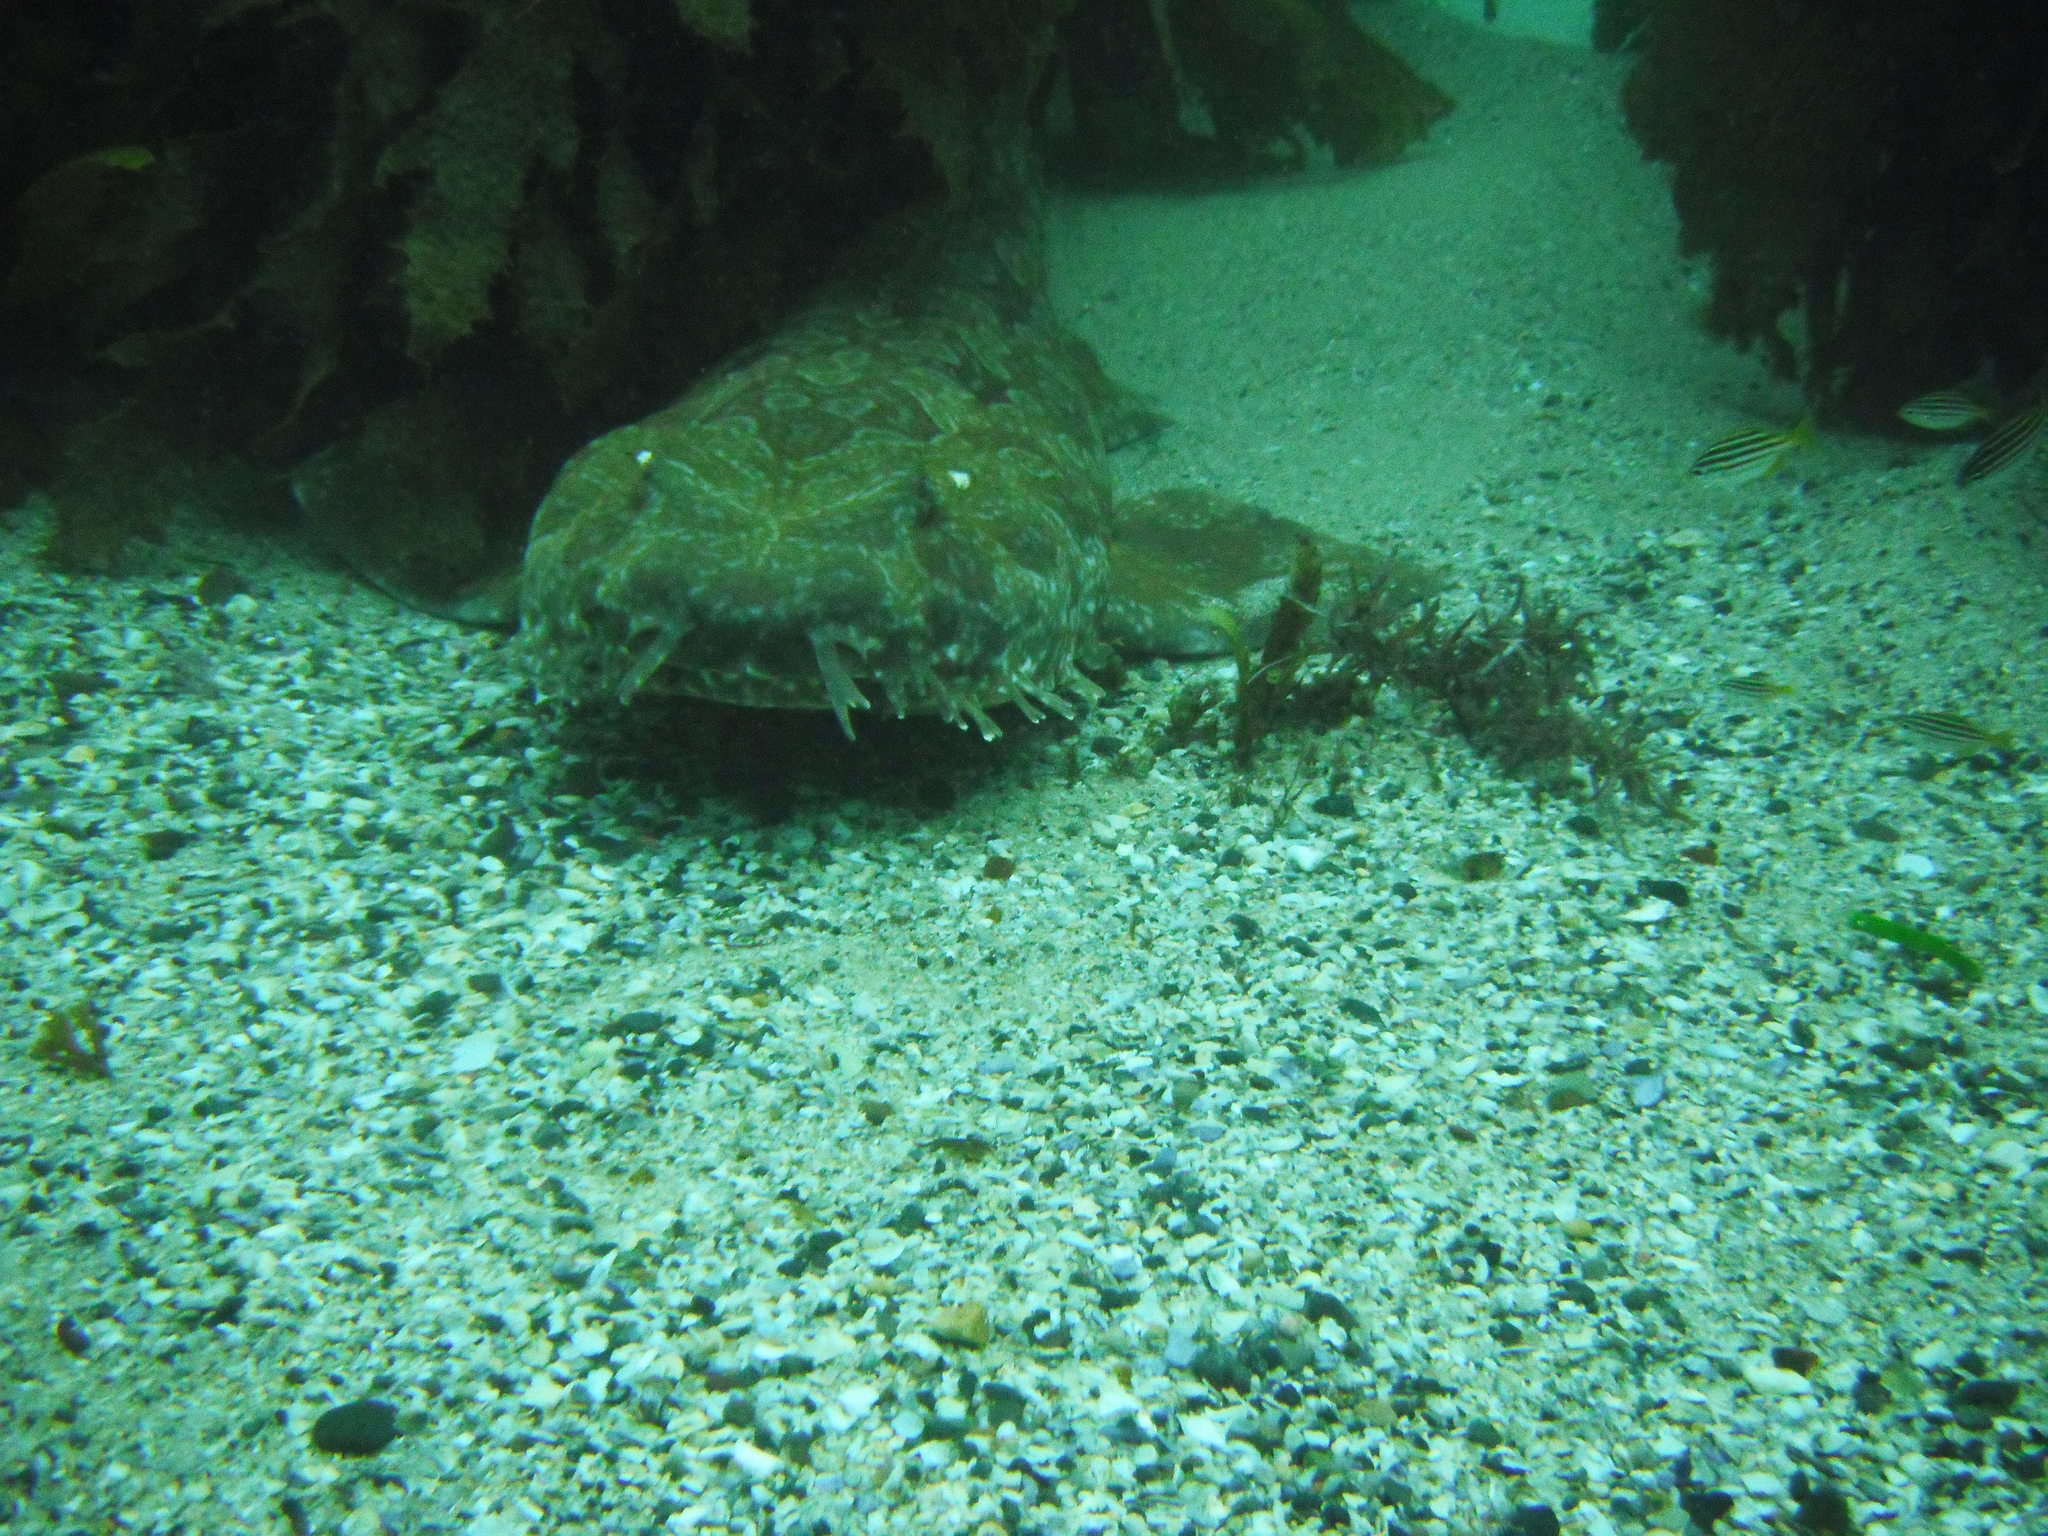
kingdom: Animalia
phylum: Chordata
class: Elasmobranchii
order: Orectolobiformes
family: Orectolobidae
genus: Orectolobus
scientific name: Orectolobus maculatus
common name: Spotted wobbegong
